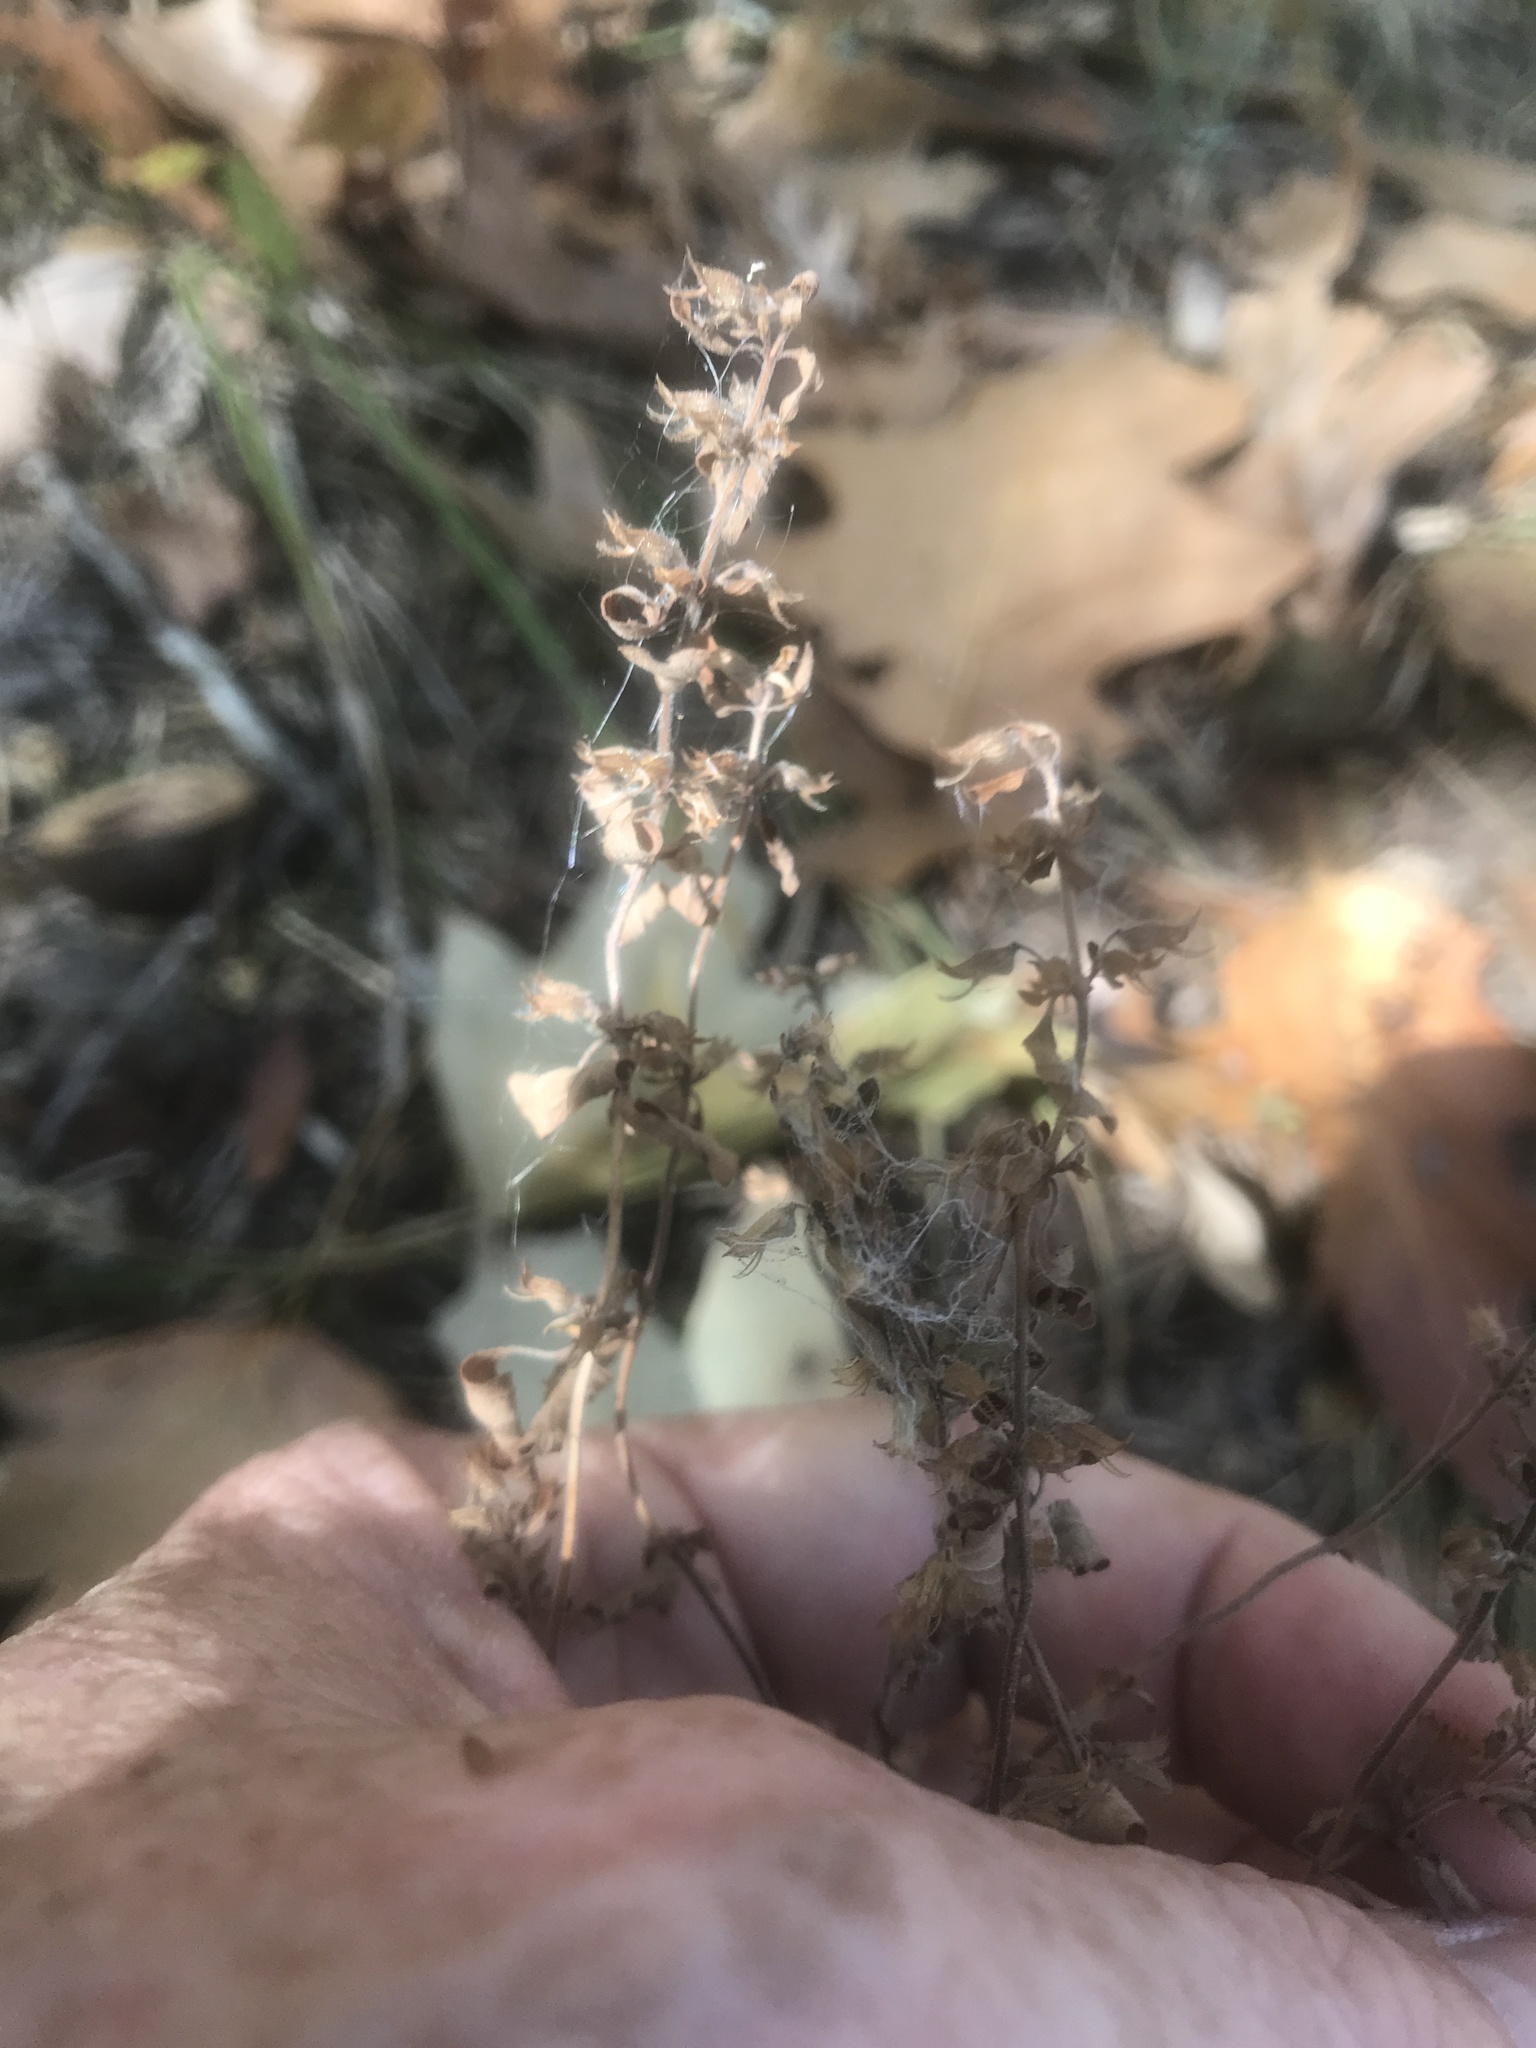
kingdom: Plantae
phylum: Tracheophyta
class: Magnoliopsida
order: Lamiales
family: Lamiaceae
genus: Hedeoma
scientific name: Hedeoma pulegioides
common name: American false pennyroyal
